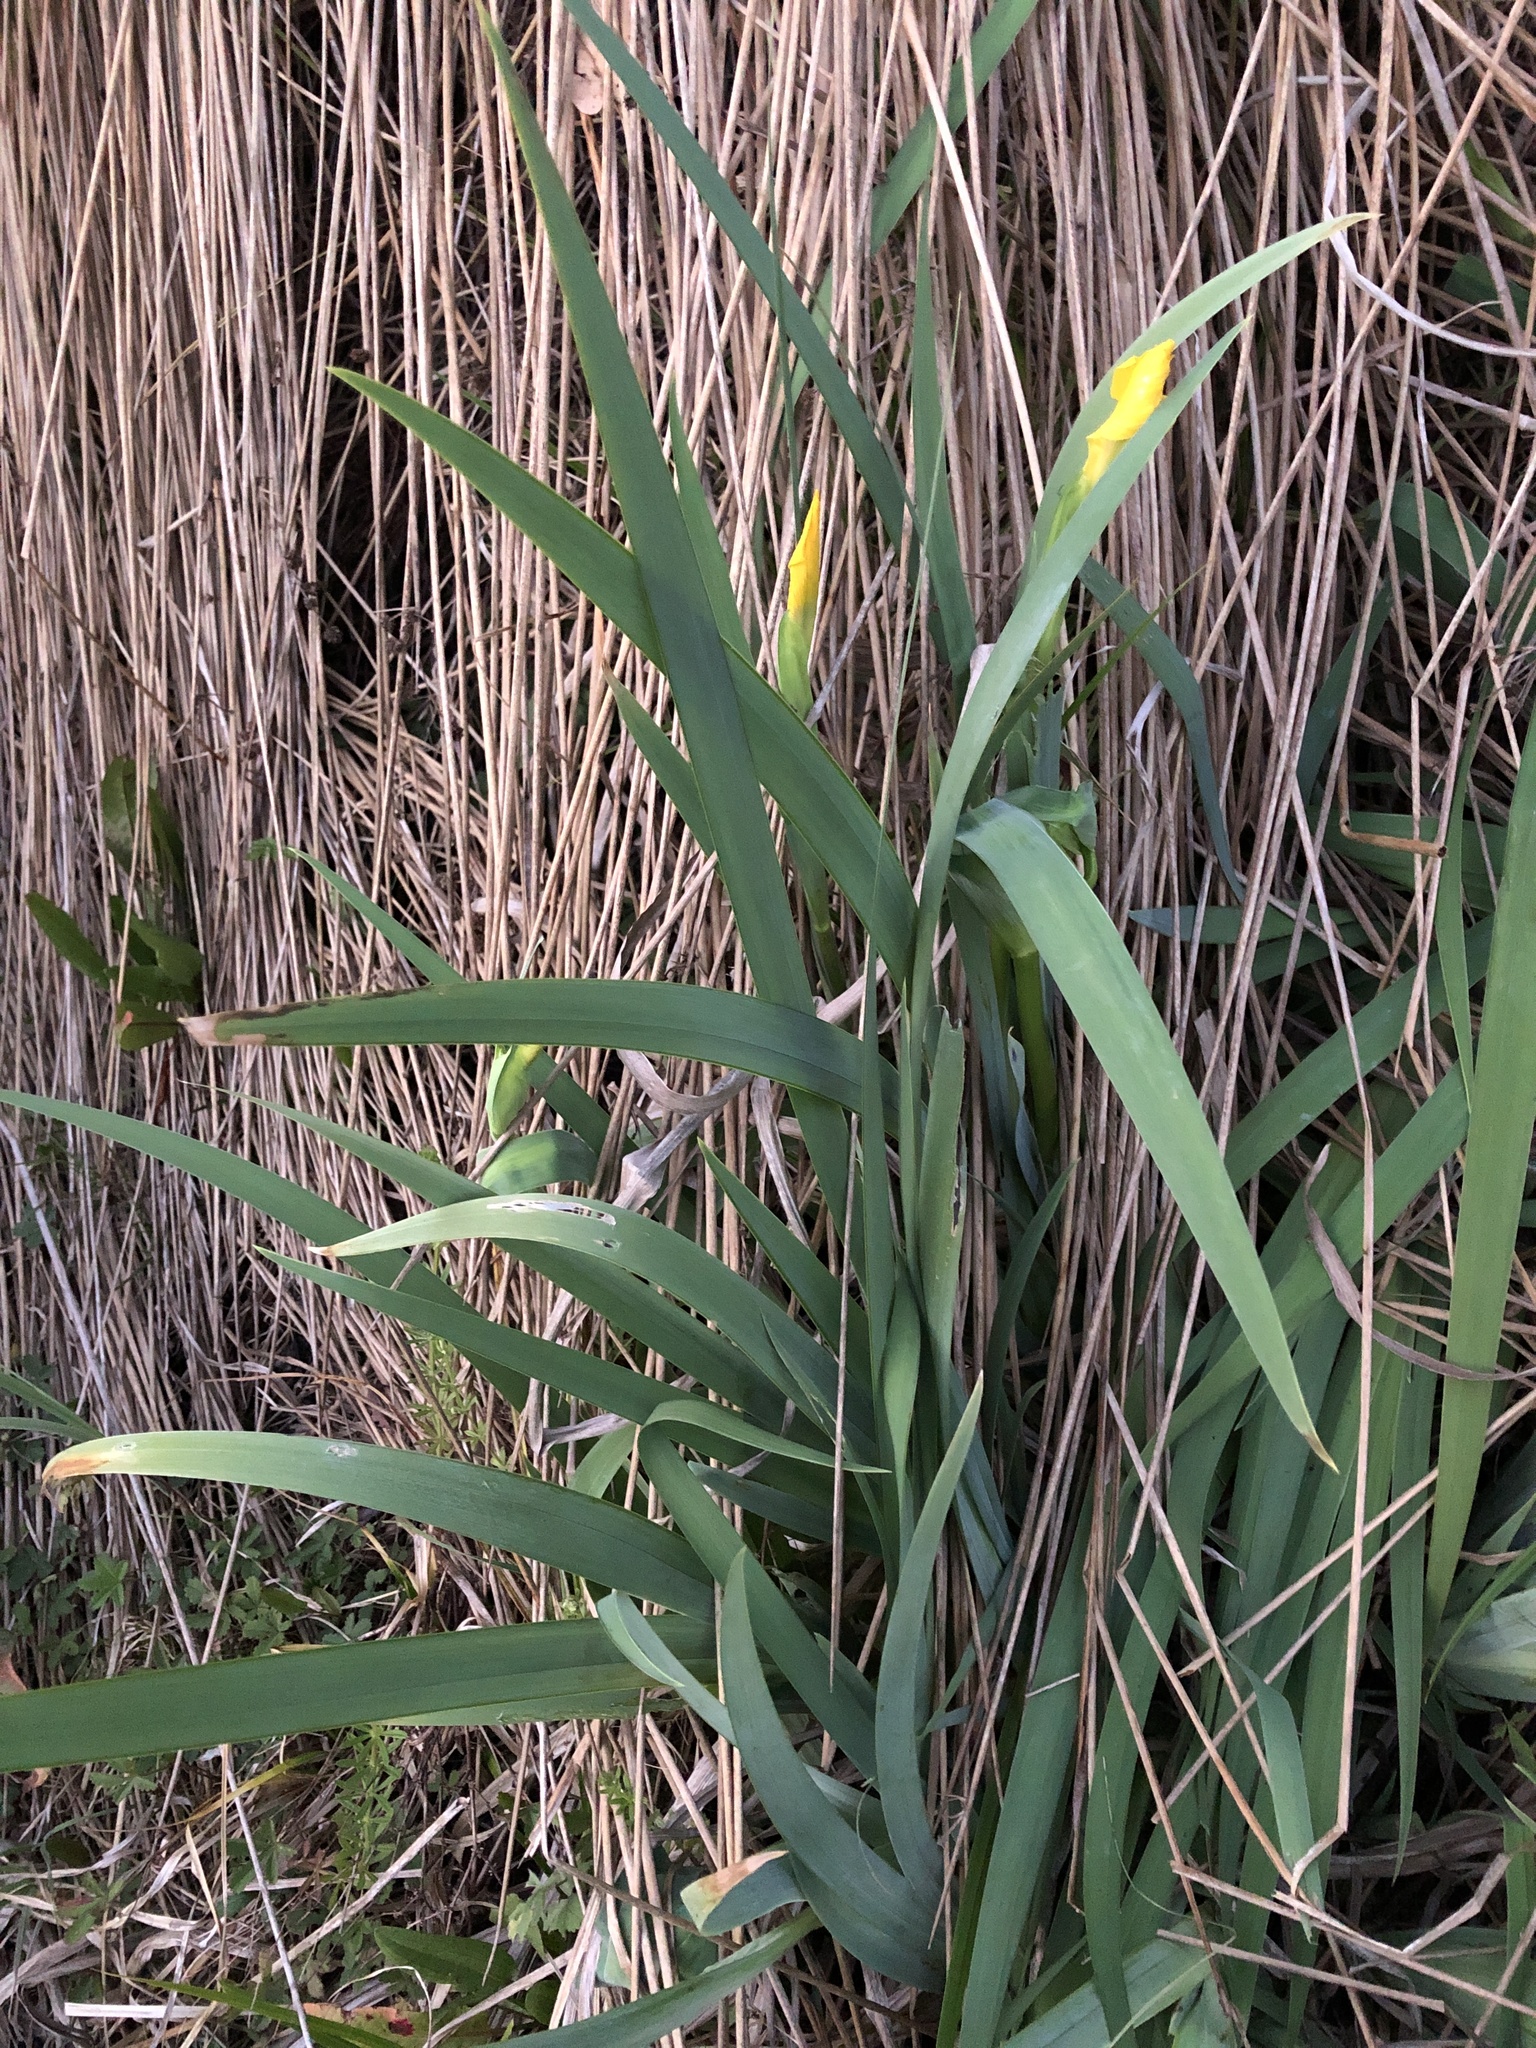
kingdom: Plantae
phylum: Tracheophyta
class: Liliopsida
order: Asparagales
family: Iridaceae
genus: Iris
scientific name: Iris pseudacorus
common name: Yellow flag
